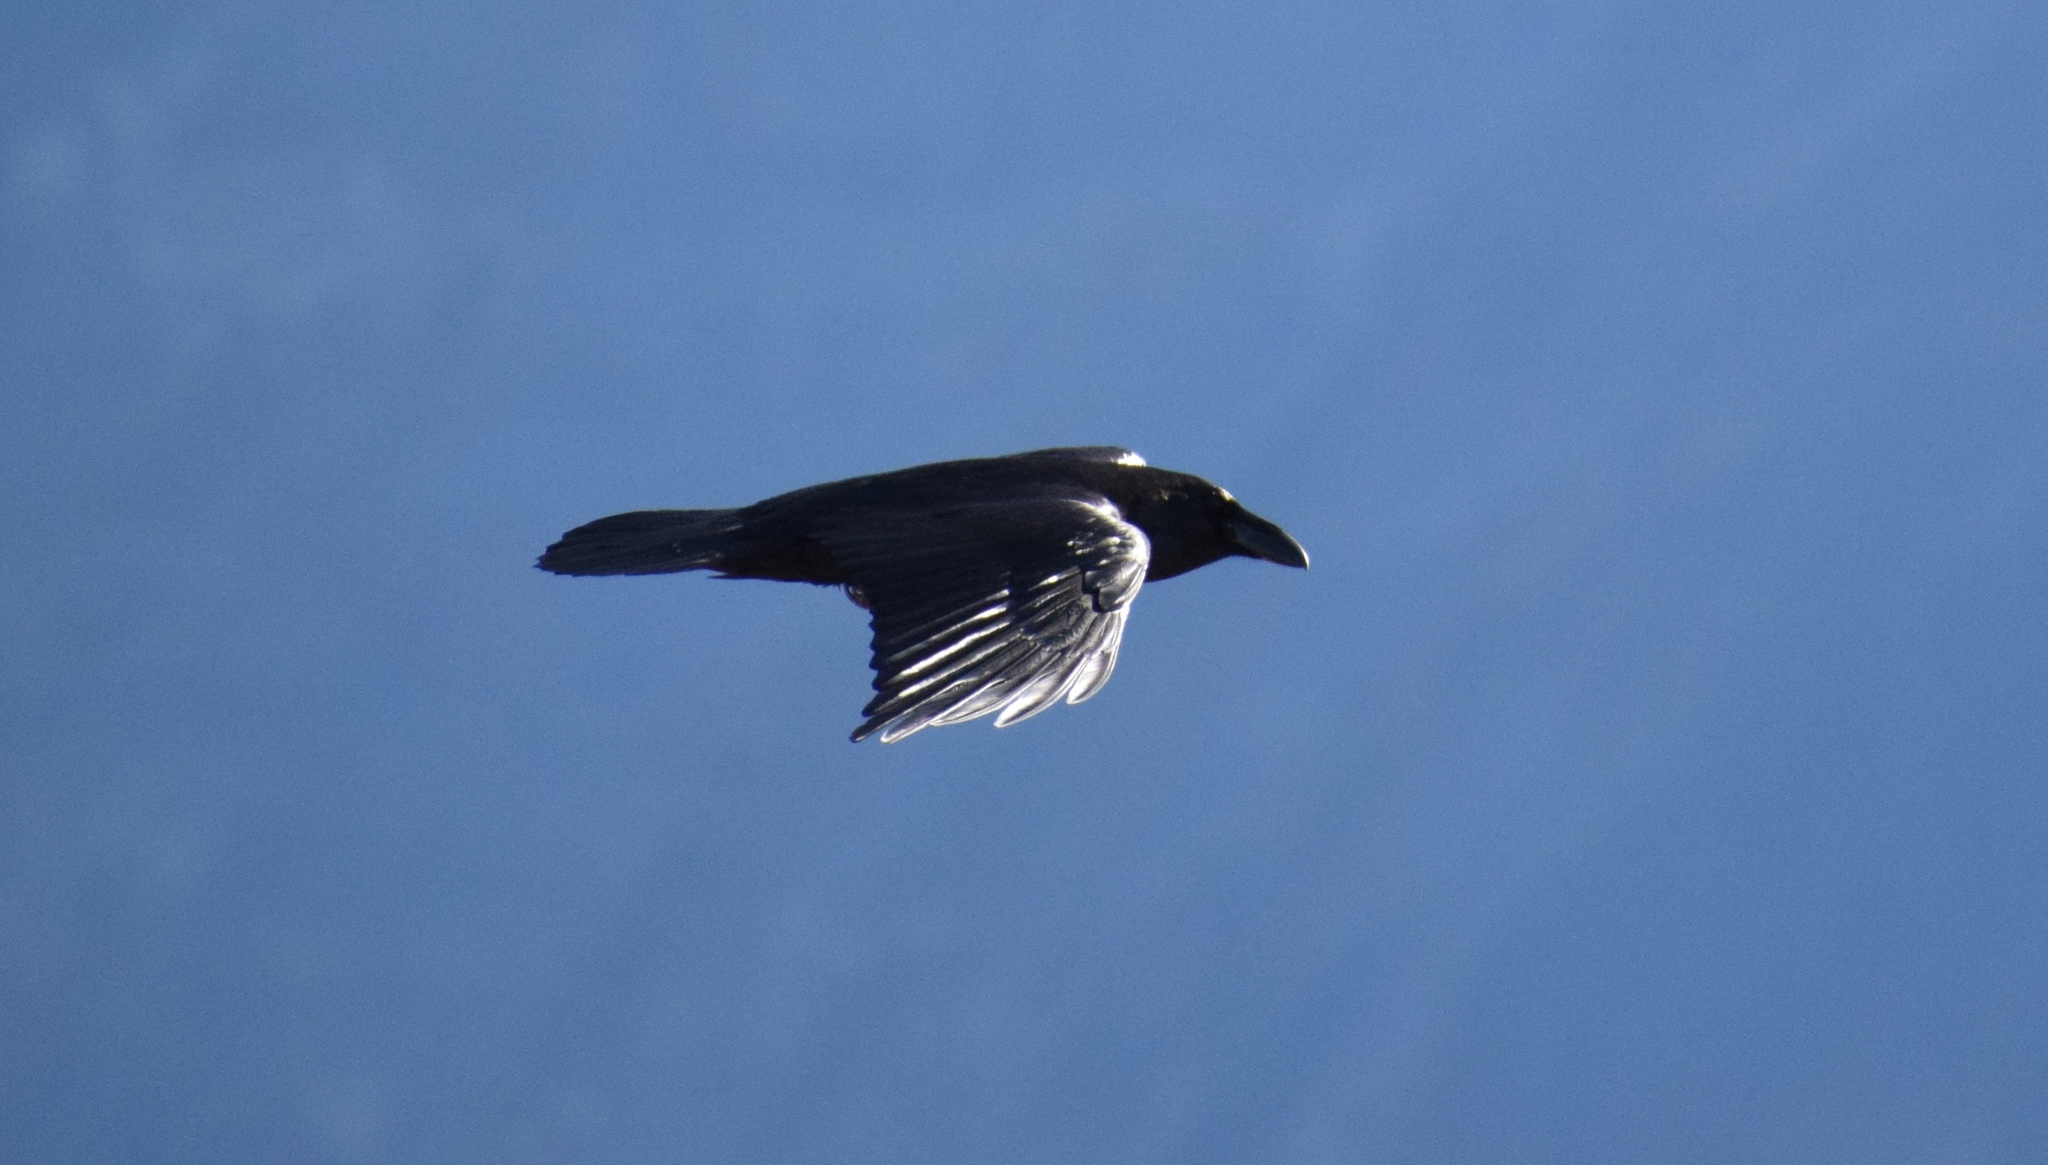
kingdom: Animalia
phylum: Chordata
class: Aves
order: Passeriformes
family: Corvidae
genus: Corvus
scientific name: Corvus corax
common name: Common raven
